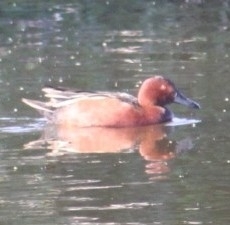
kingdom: Animalia
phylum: Chordata
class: Aves
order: Anseriformes
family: Anatidae
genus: Spatula
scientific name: Spatula cyanoptera
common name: Cinnamon teal
